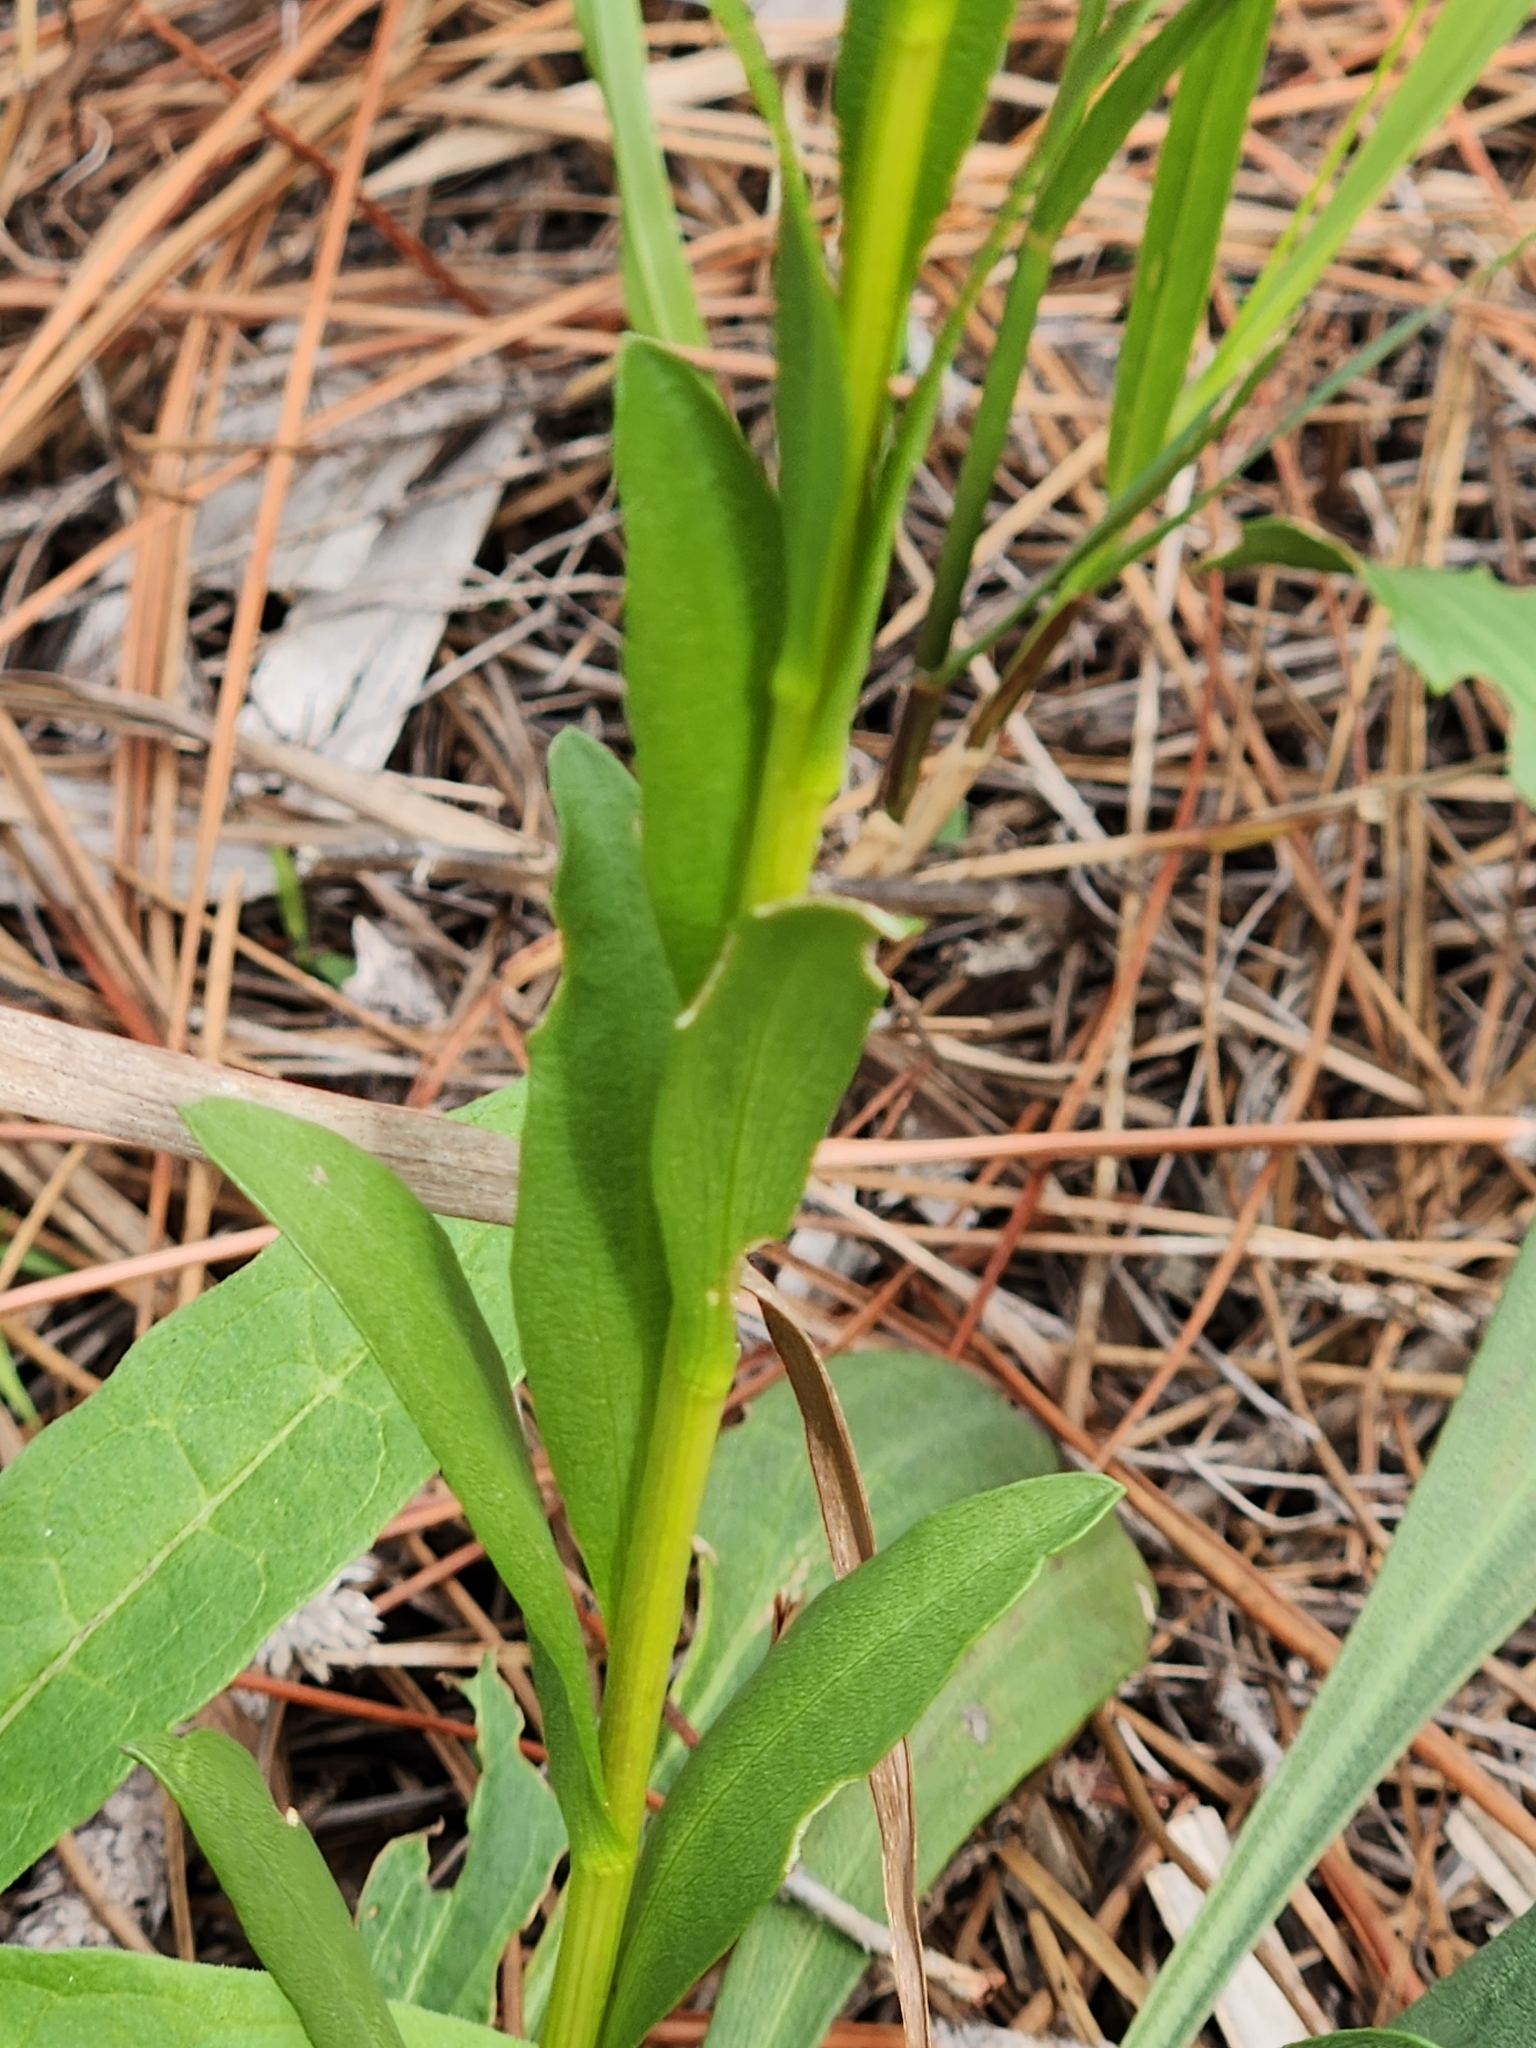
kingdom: Plantae
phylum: Tracheophyta
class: Magnoliopsida
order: Asterales
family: Asteraceae
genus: Solidago
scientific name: Solidago mexicana
